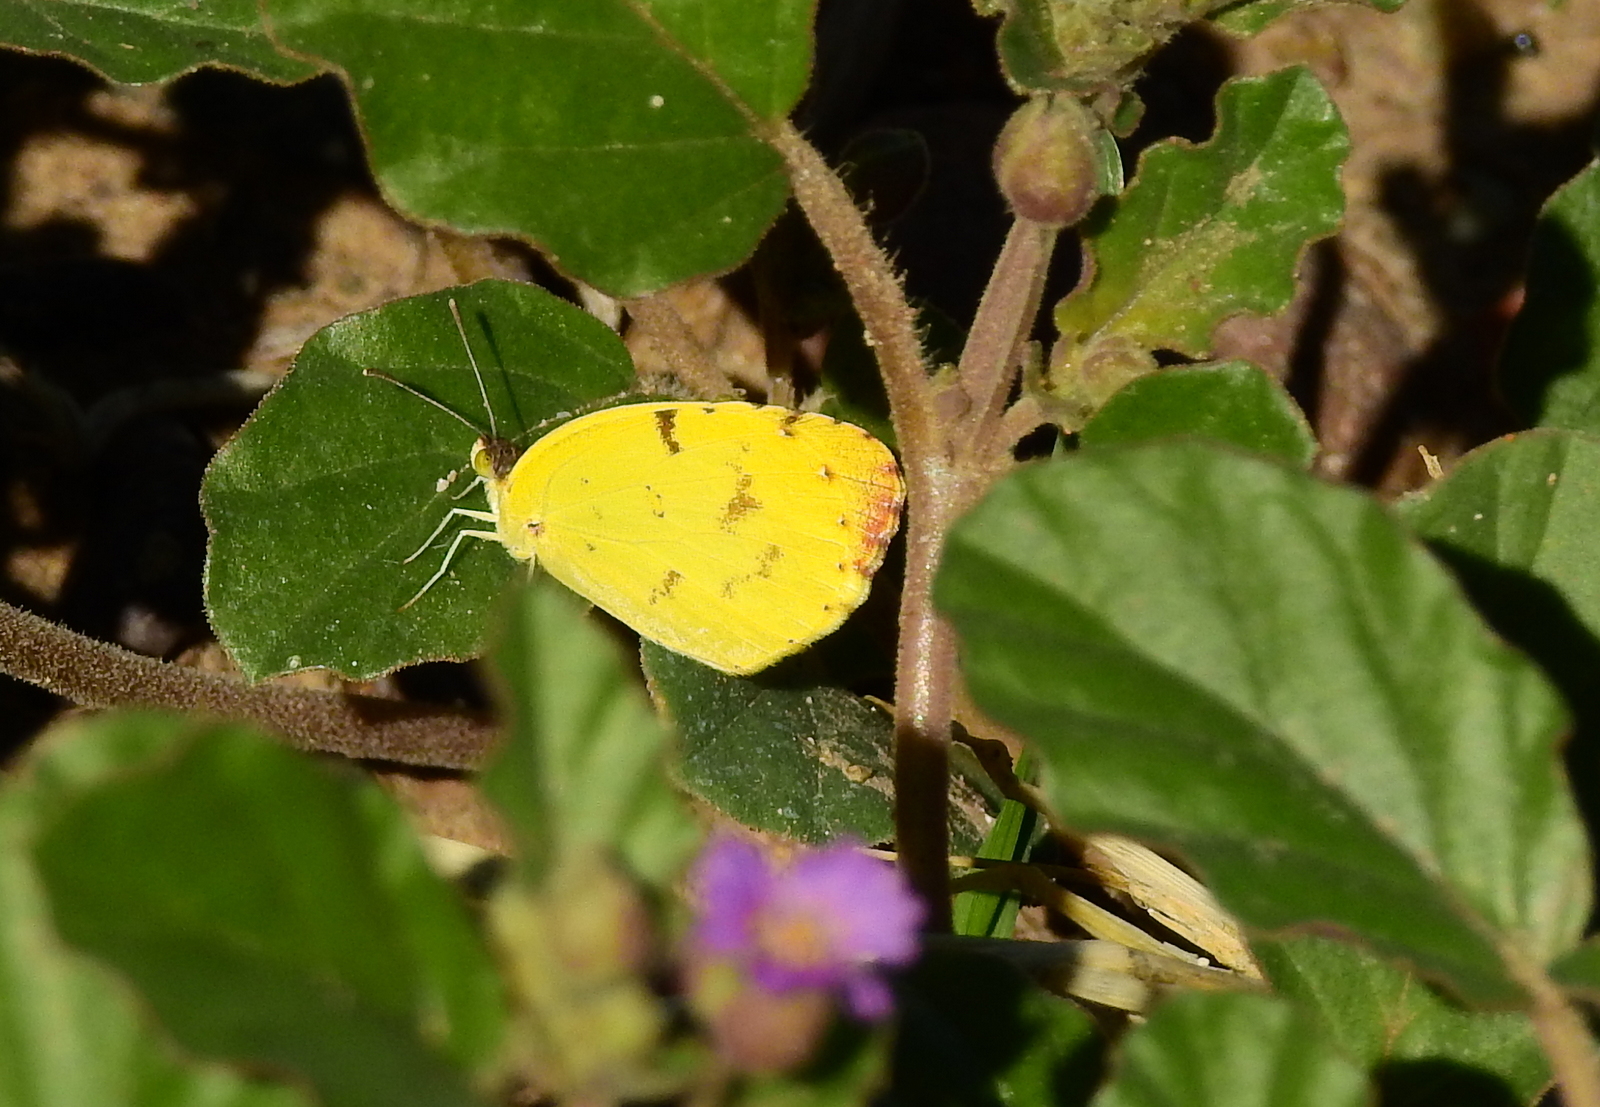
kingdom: Animalia
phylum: Arthropoda
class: Insecta
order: Lepidoptera
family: Pieridae
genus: Teriocolias
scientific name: Teriocolias
